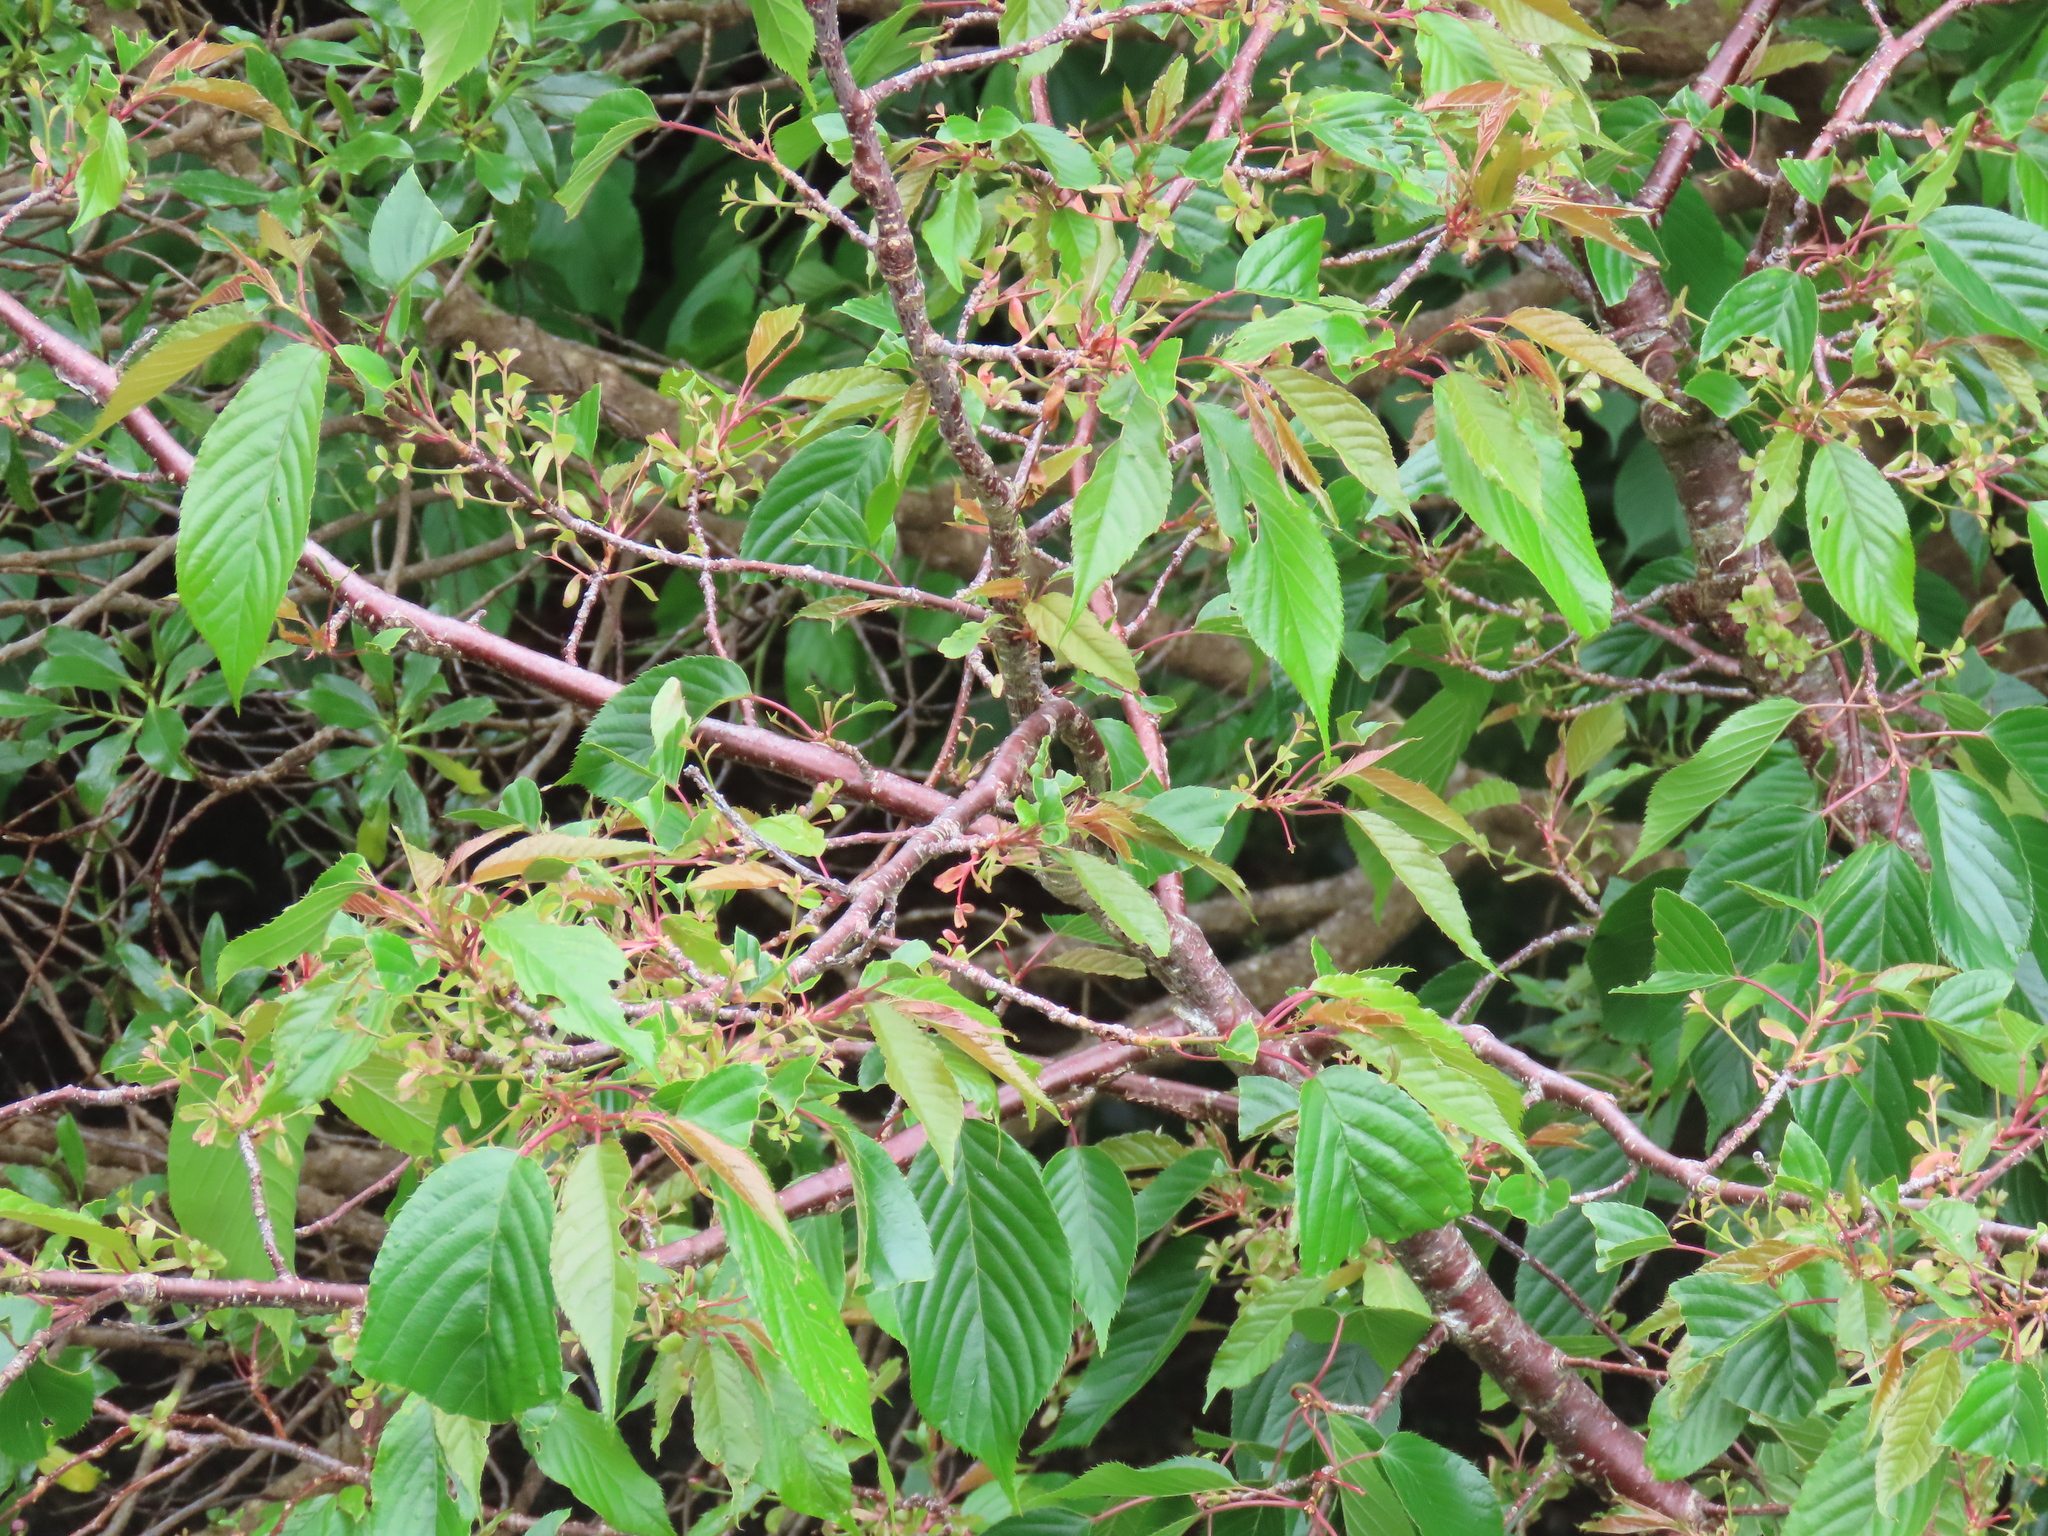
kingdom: Plantae
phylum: Tracheophyta
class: Magnoliopsida
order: Rosales
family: Rosaceae
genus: Prunus
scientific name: Prunus avium
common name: Sweet cherry
